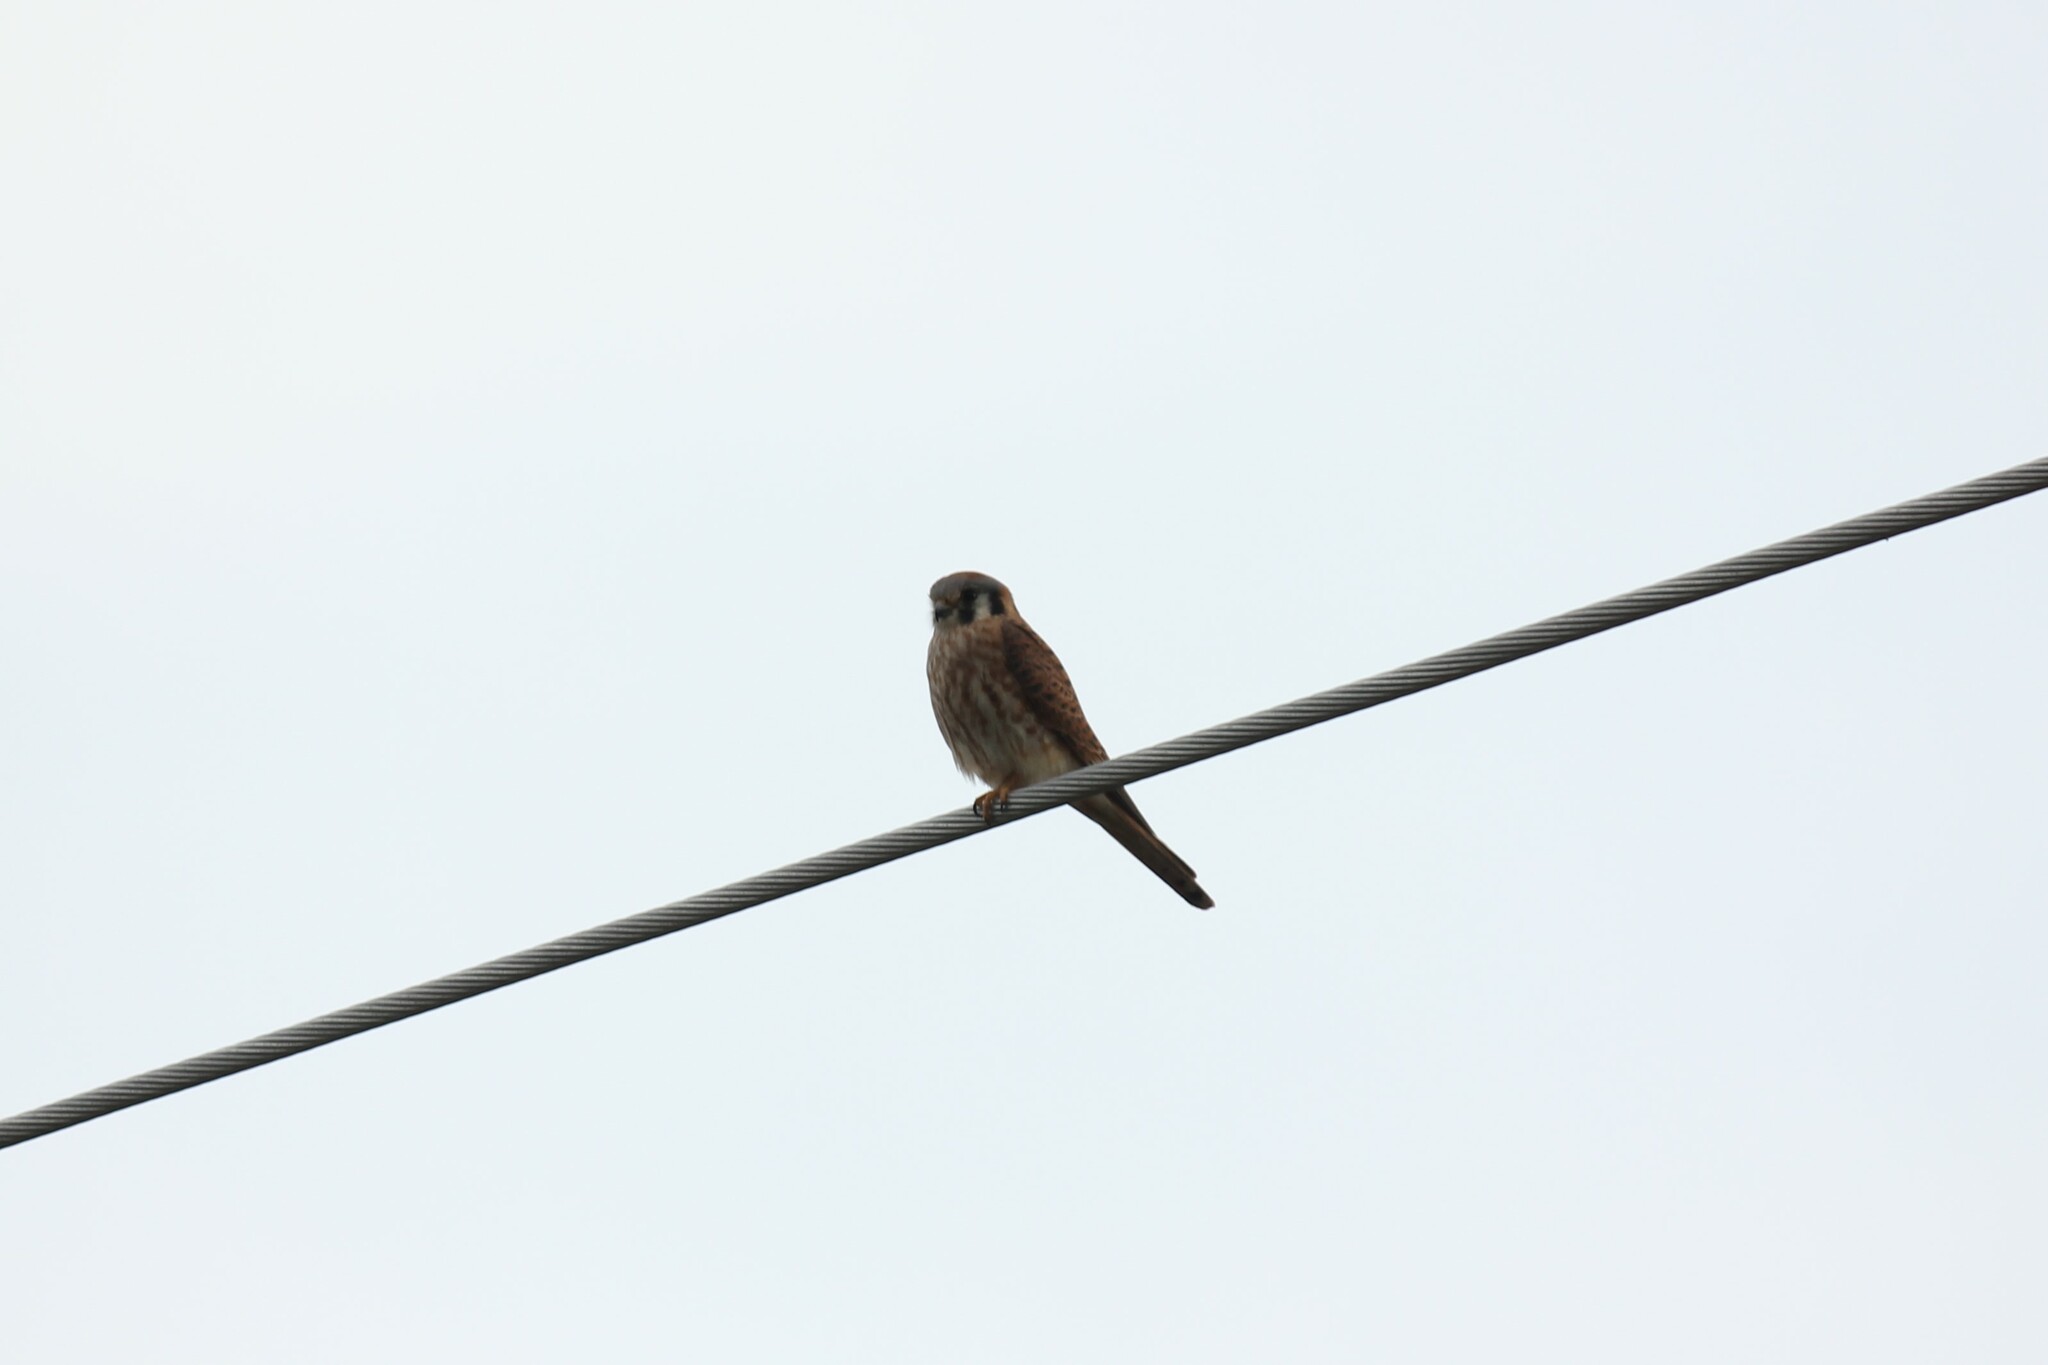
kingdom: Animalia
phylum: Chordata
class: Aves
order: Falconiformes
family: Falconidae
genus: Falco
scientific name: Falco sparverius
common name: American kestrel
